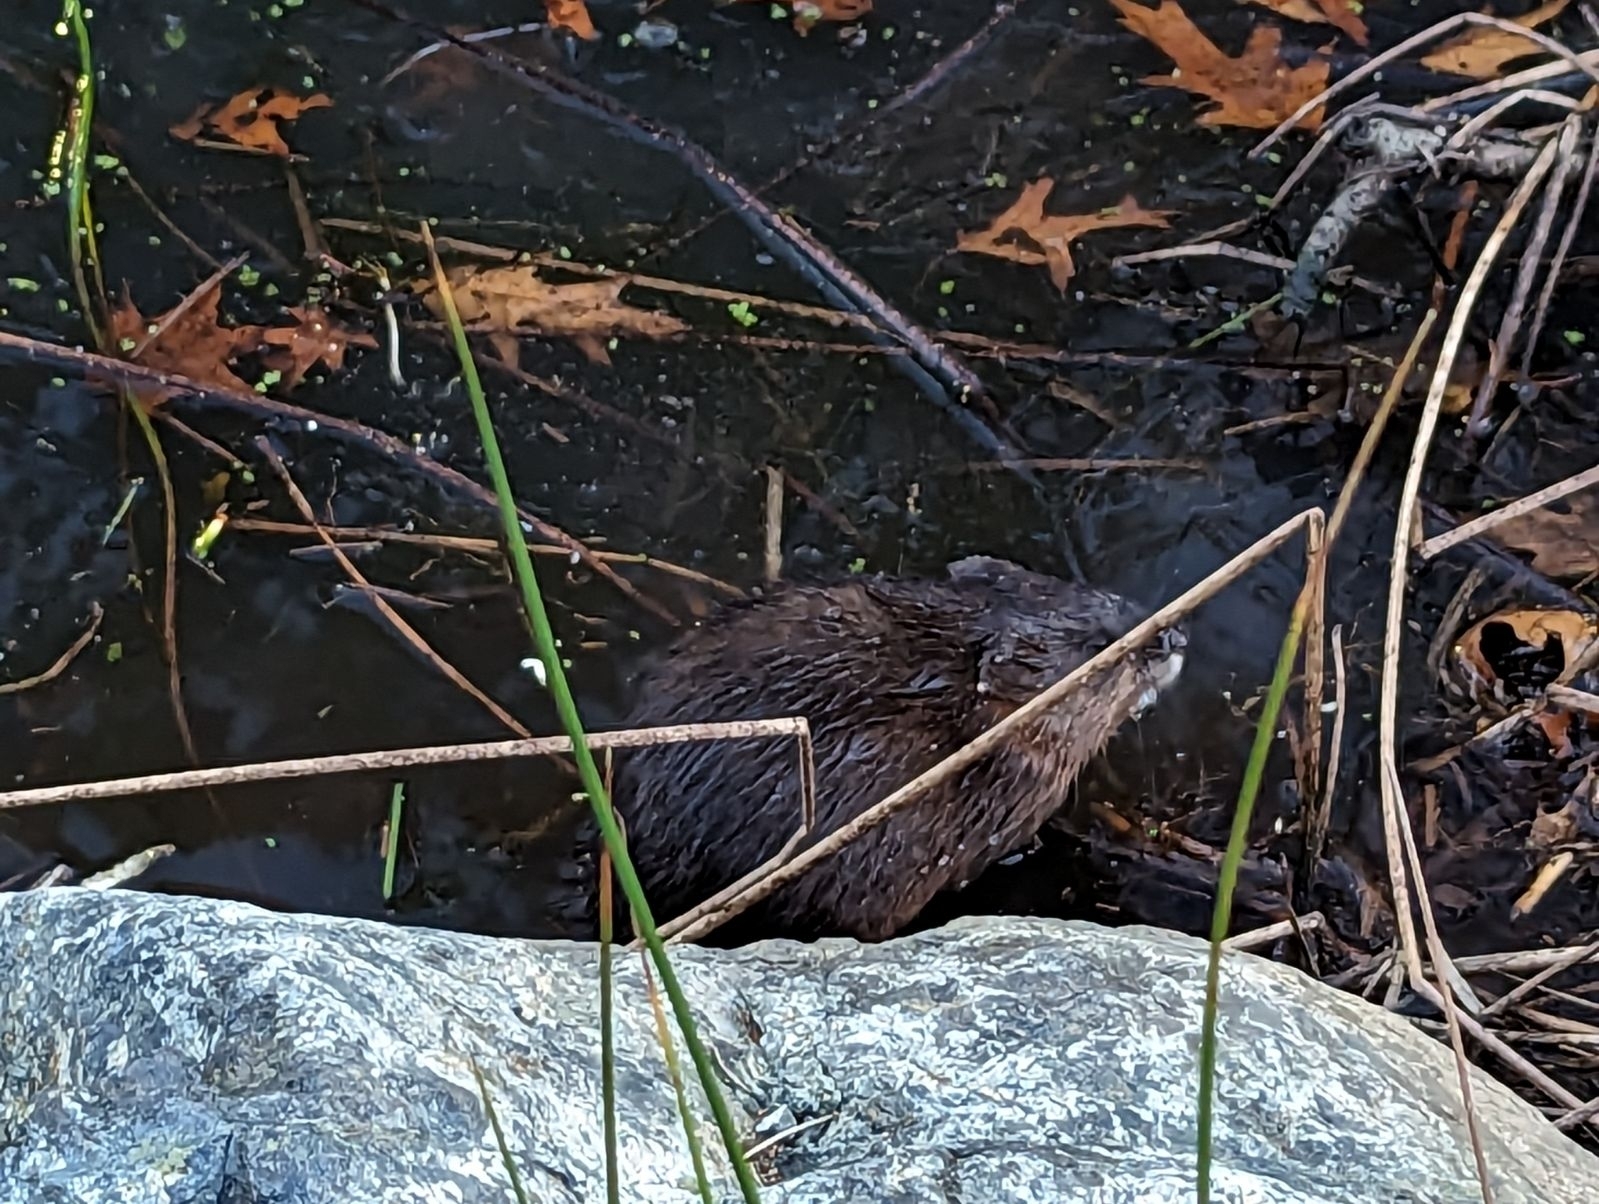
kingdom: Animalia
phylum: Chordata
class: Mammalia
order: Rodentia
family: Cricetidae
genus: Ondatra
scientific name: Ondatra zibethicus
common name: Muskrat
